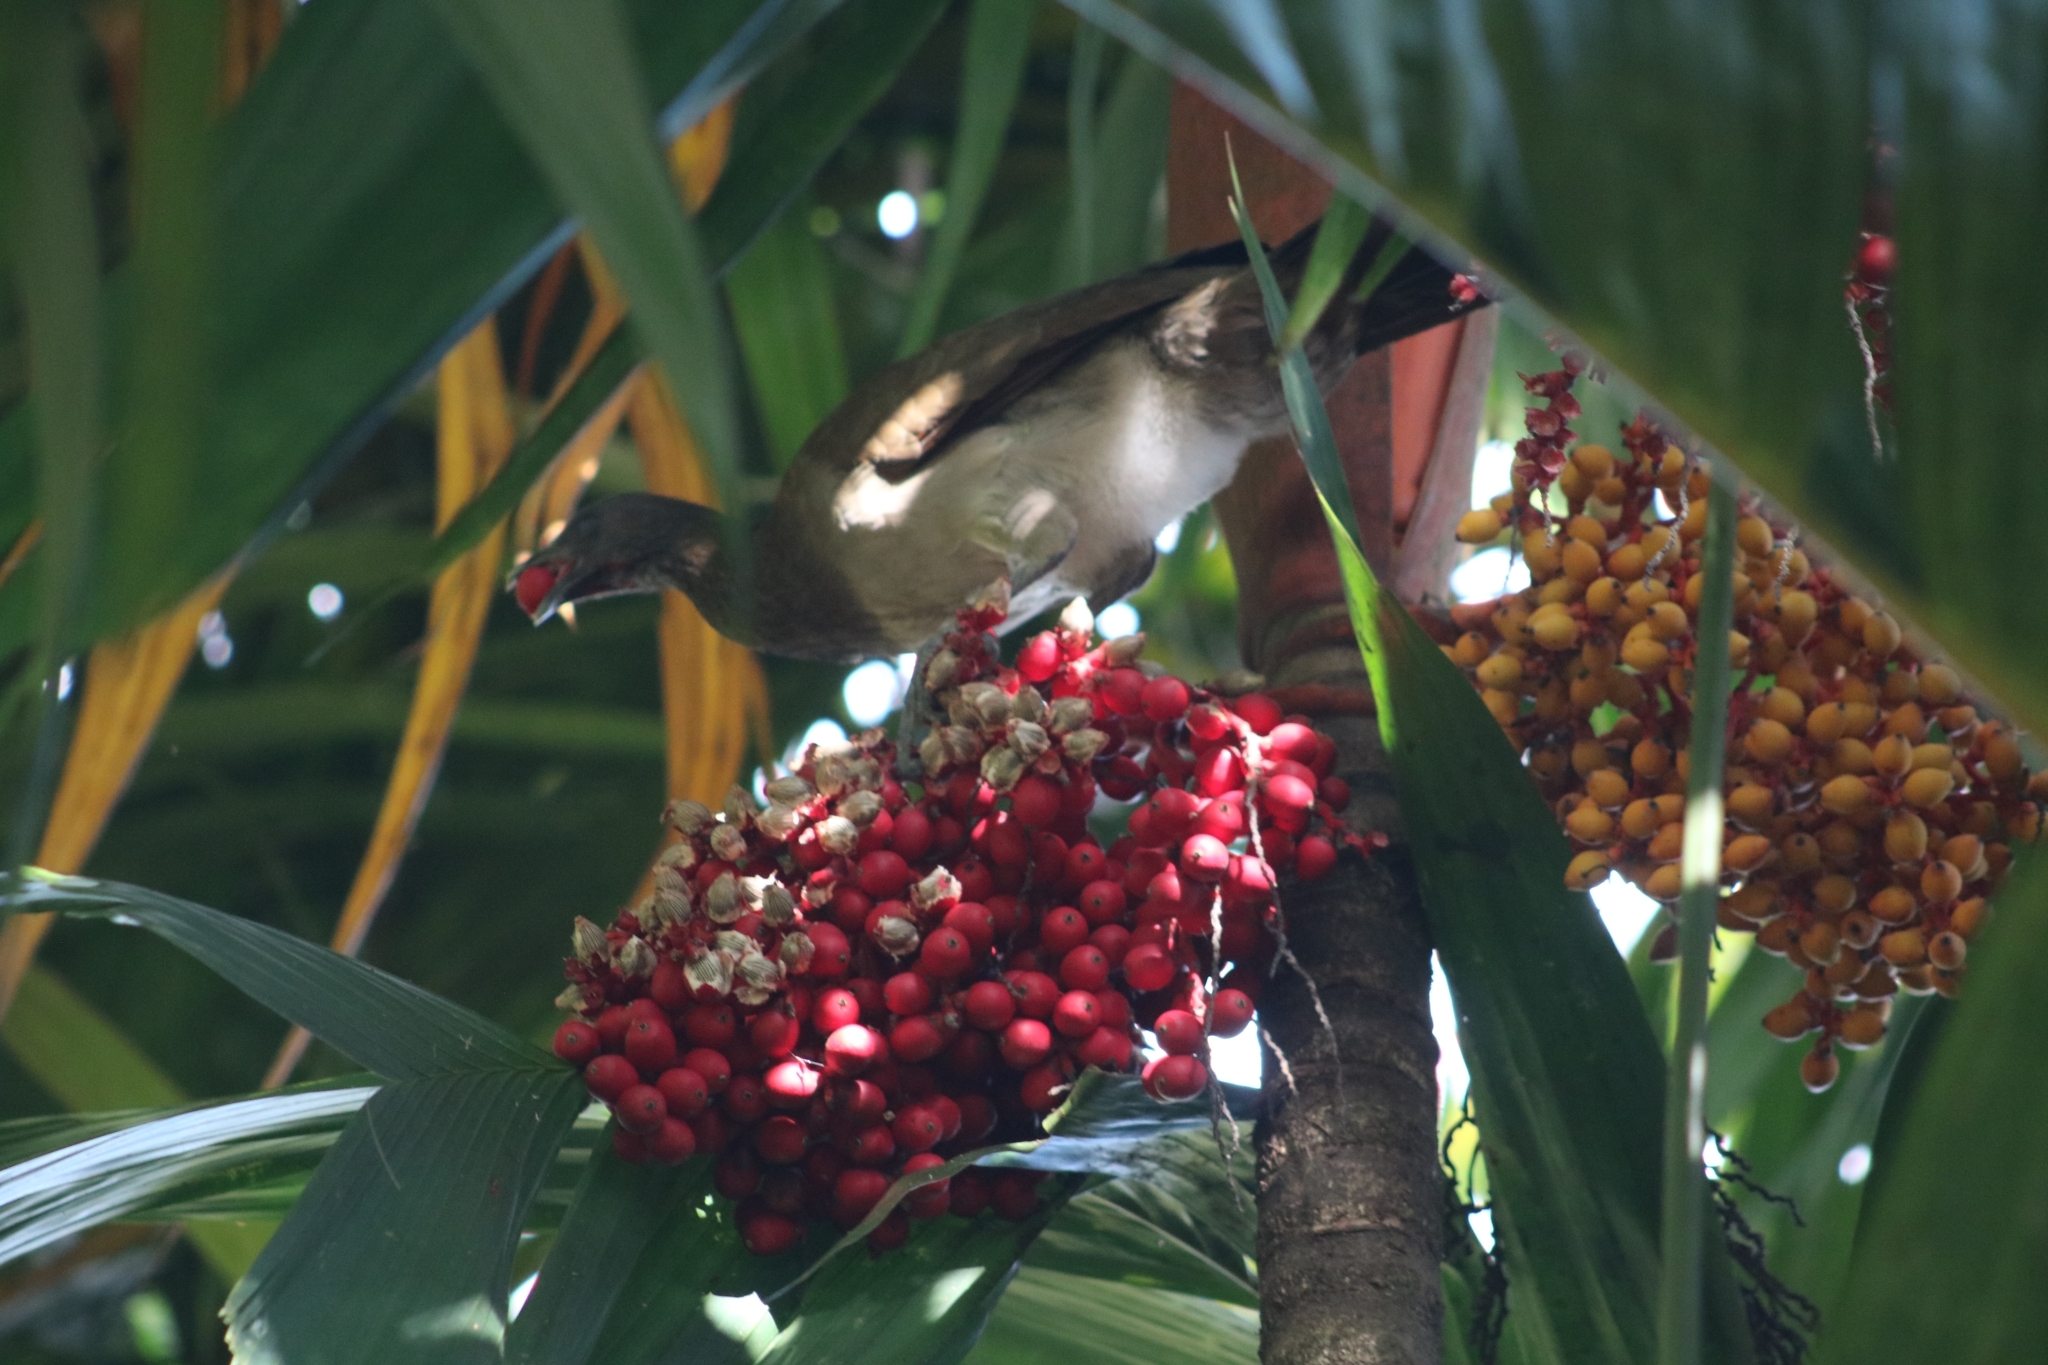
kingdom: Animalia
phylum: Chordata
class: Aves
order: Galliformes
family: Cracidae
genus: Ortalis
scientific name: Ortalis cinereiceps
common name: Grey-headed chachalaca
